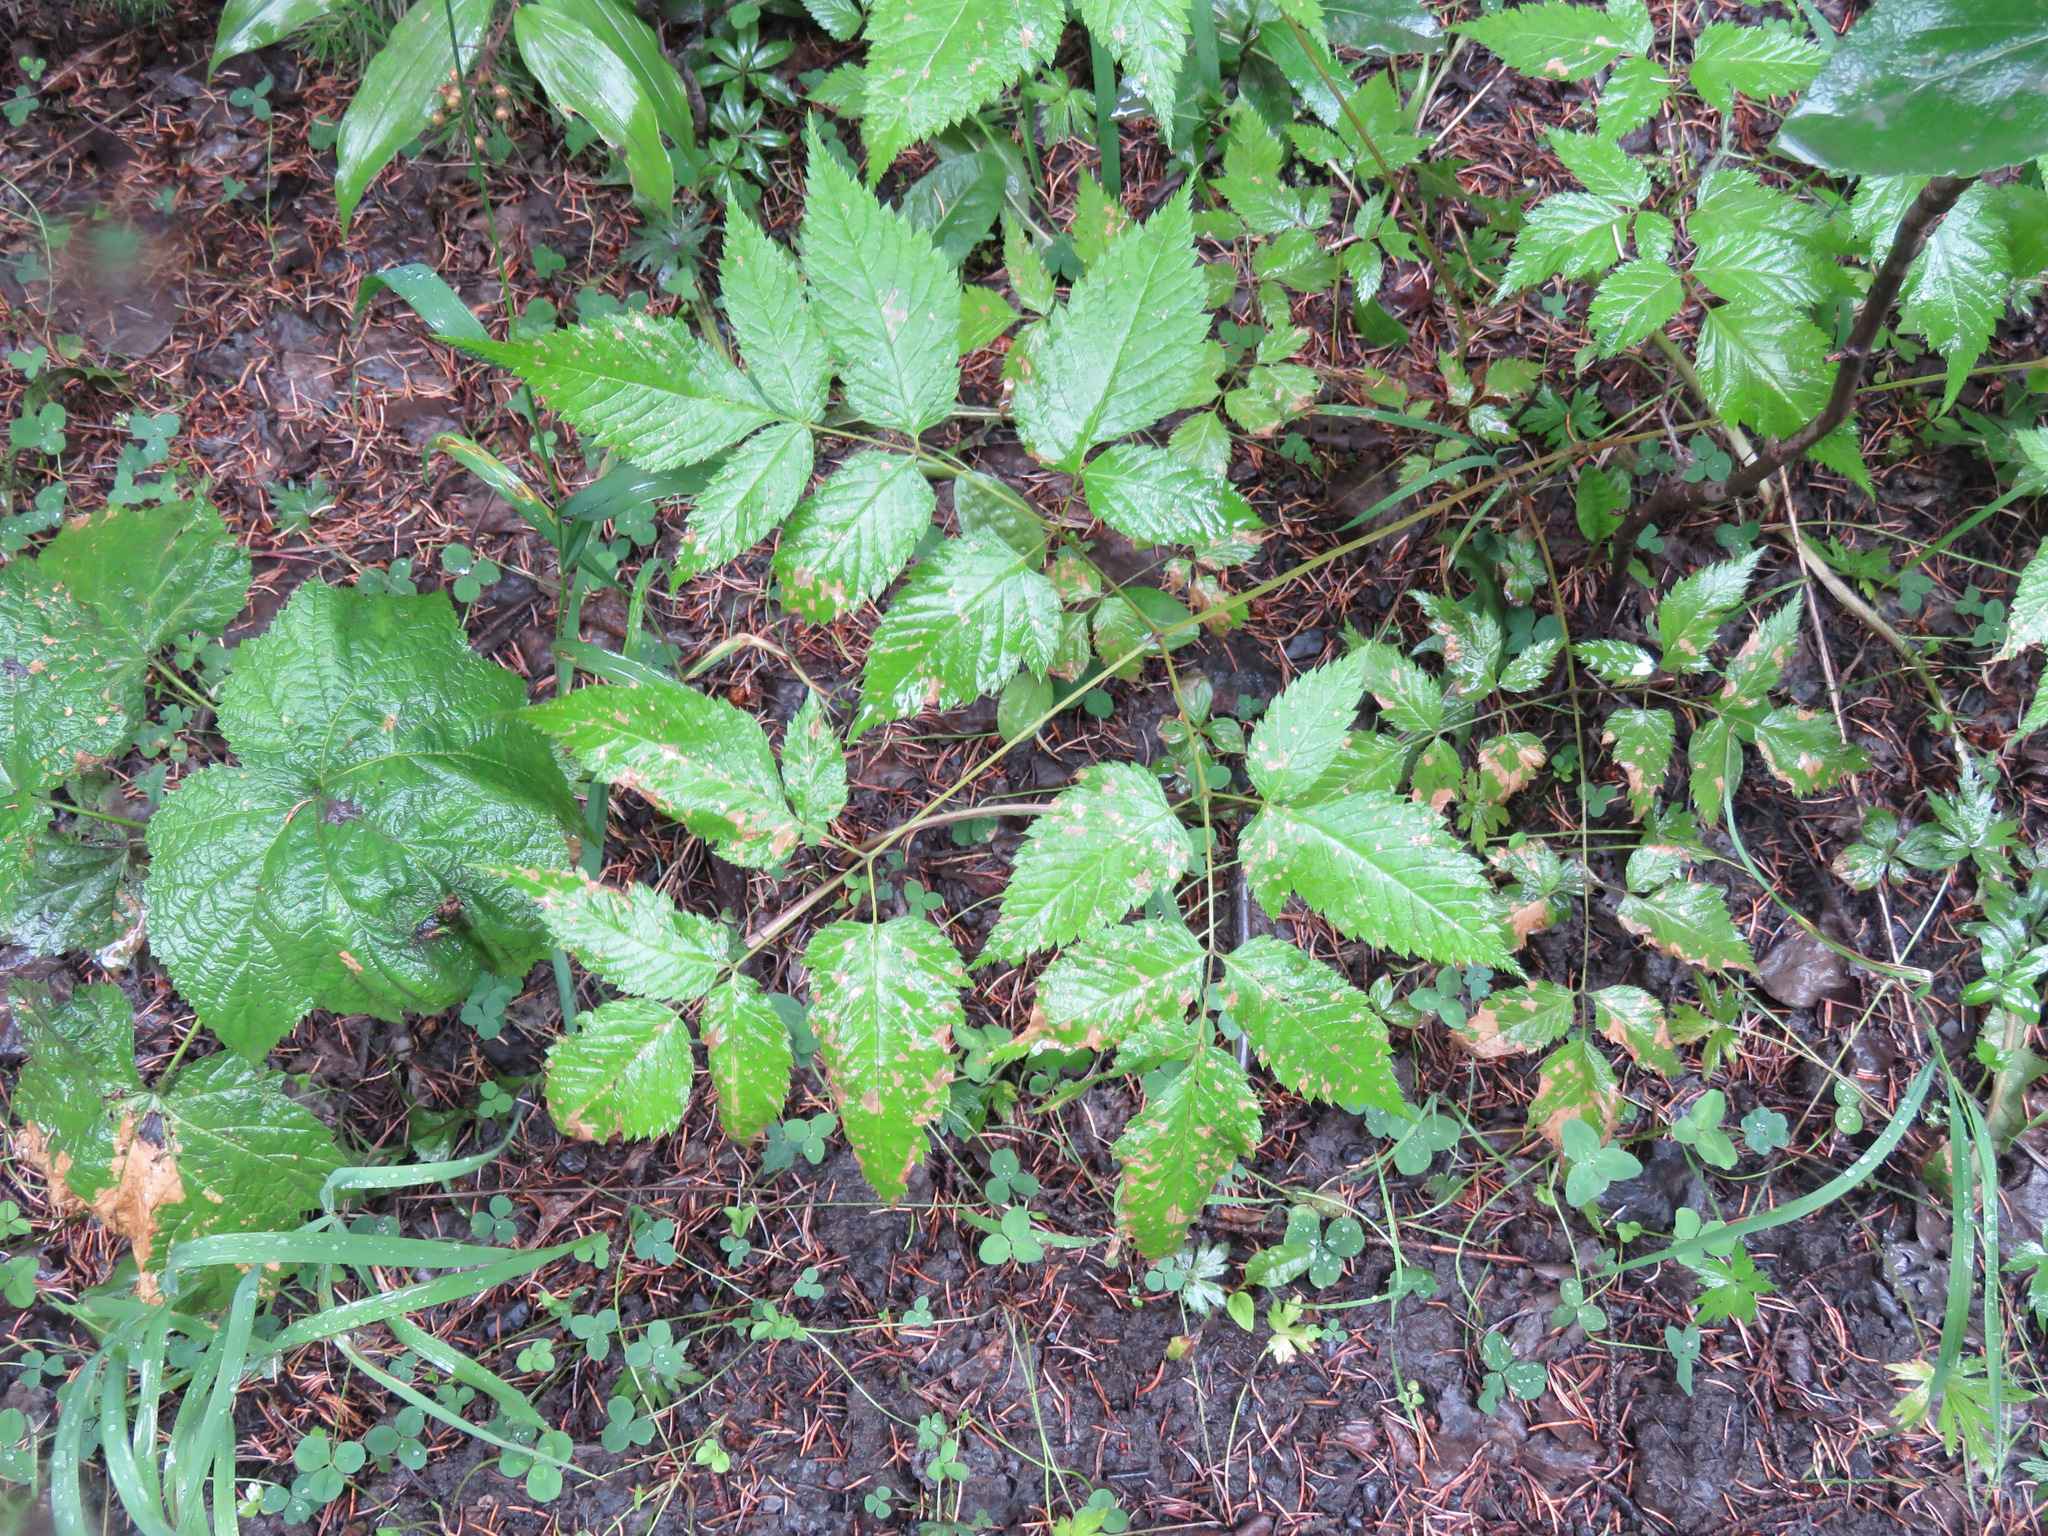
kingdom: Plantae
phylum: Tracheophyta
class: Magnoliopsida
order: Rosales
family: Rosaceae
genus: Aruncus
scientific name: Aruncus dioicus
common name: Buck's-beard
